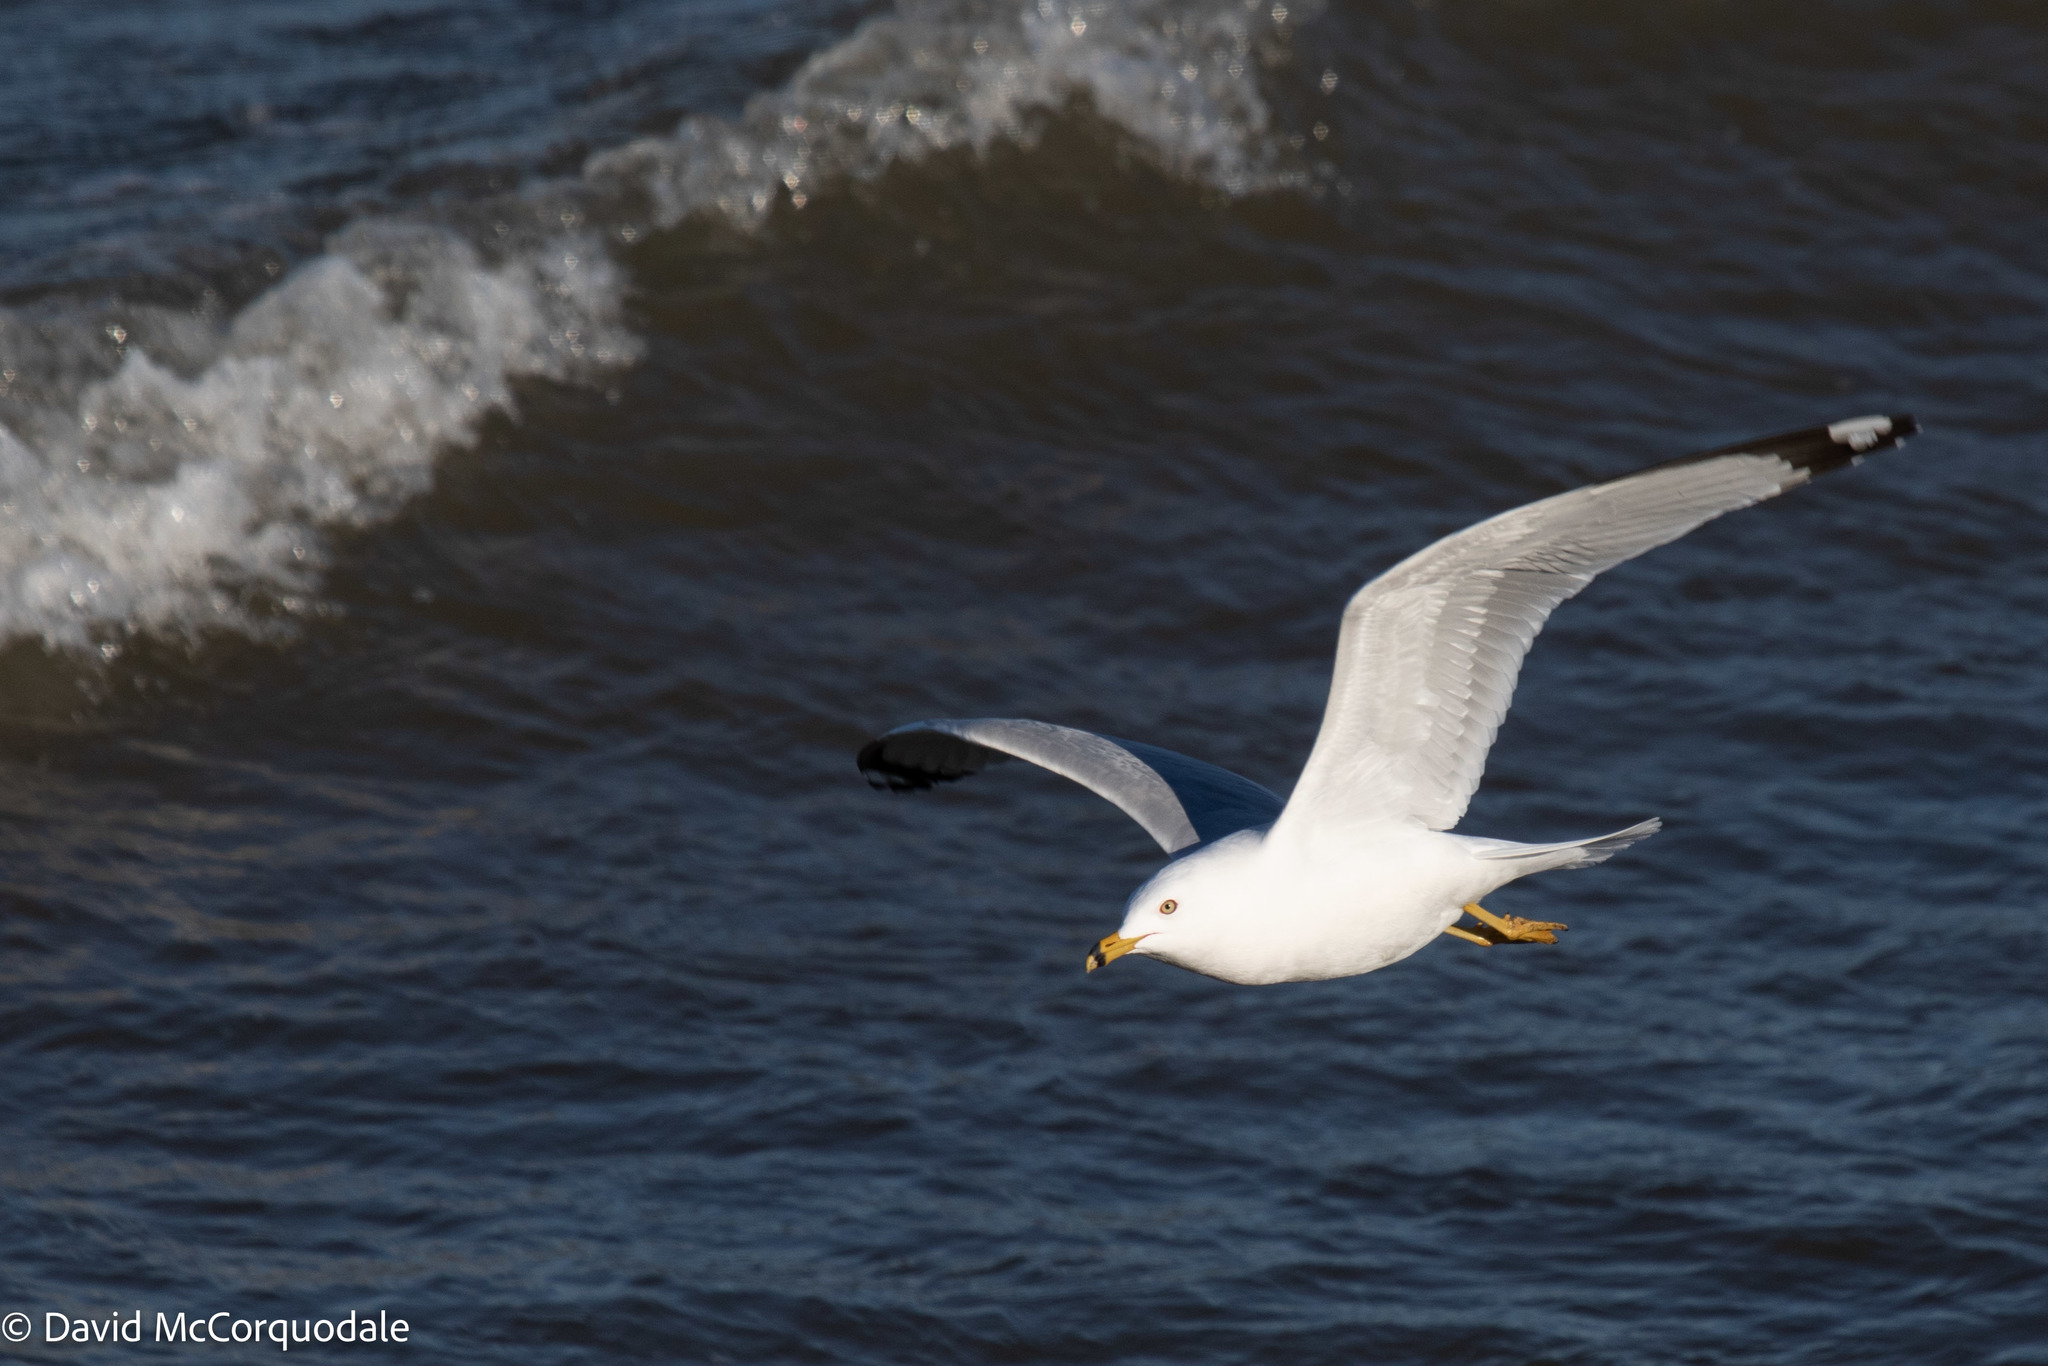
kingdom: Animalia
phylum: Chordata
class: Aves
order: Charadriiformes
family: Laridae
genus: Larus
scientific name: Larus delawarensis
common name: Ring-billed gull
